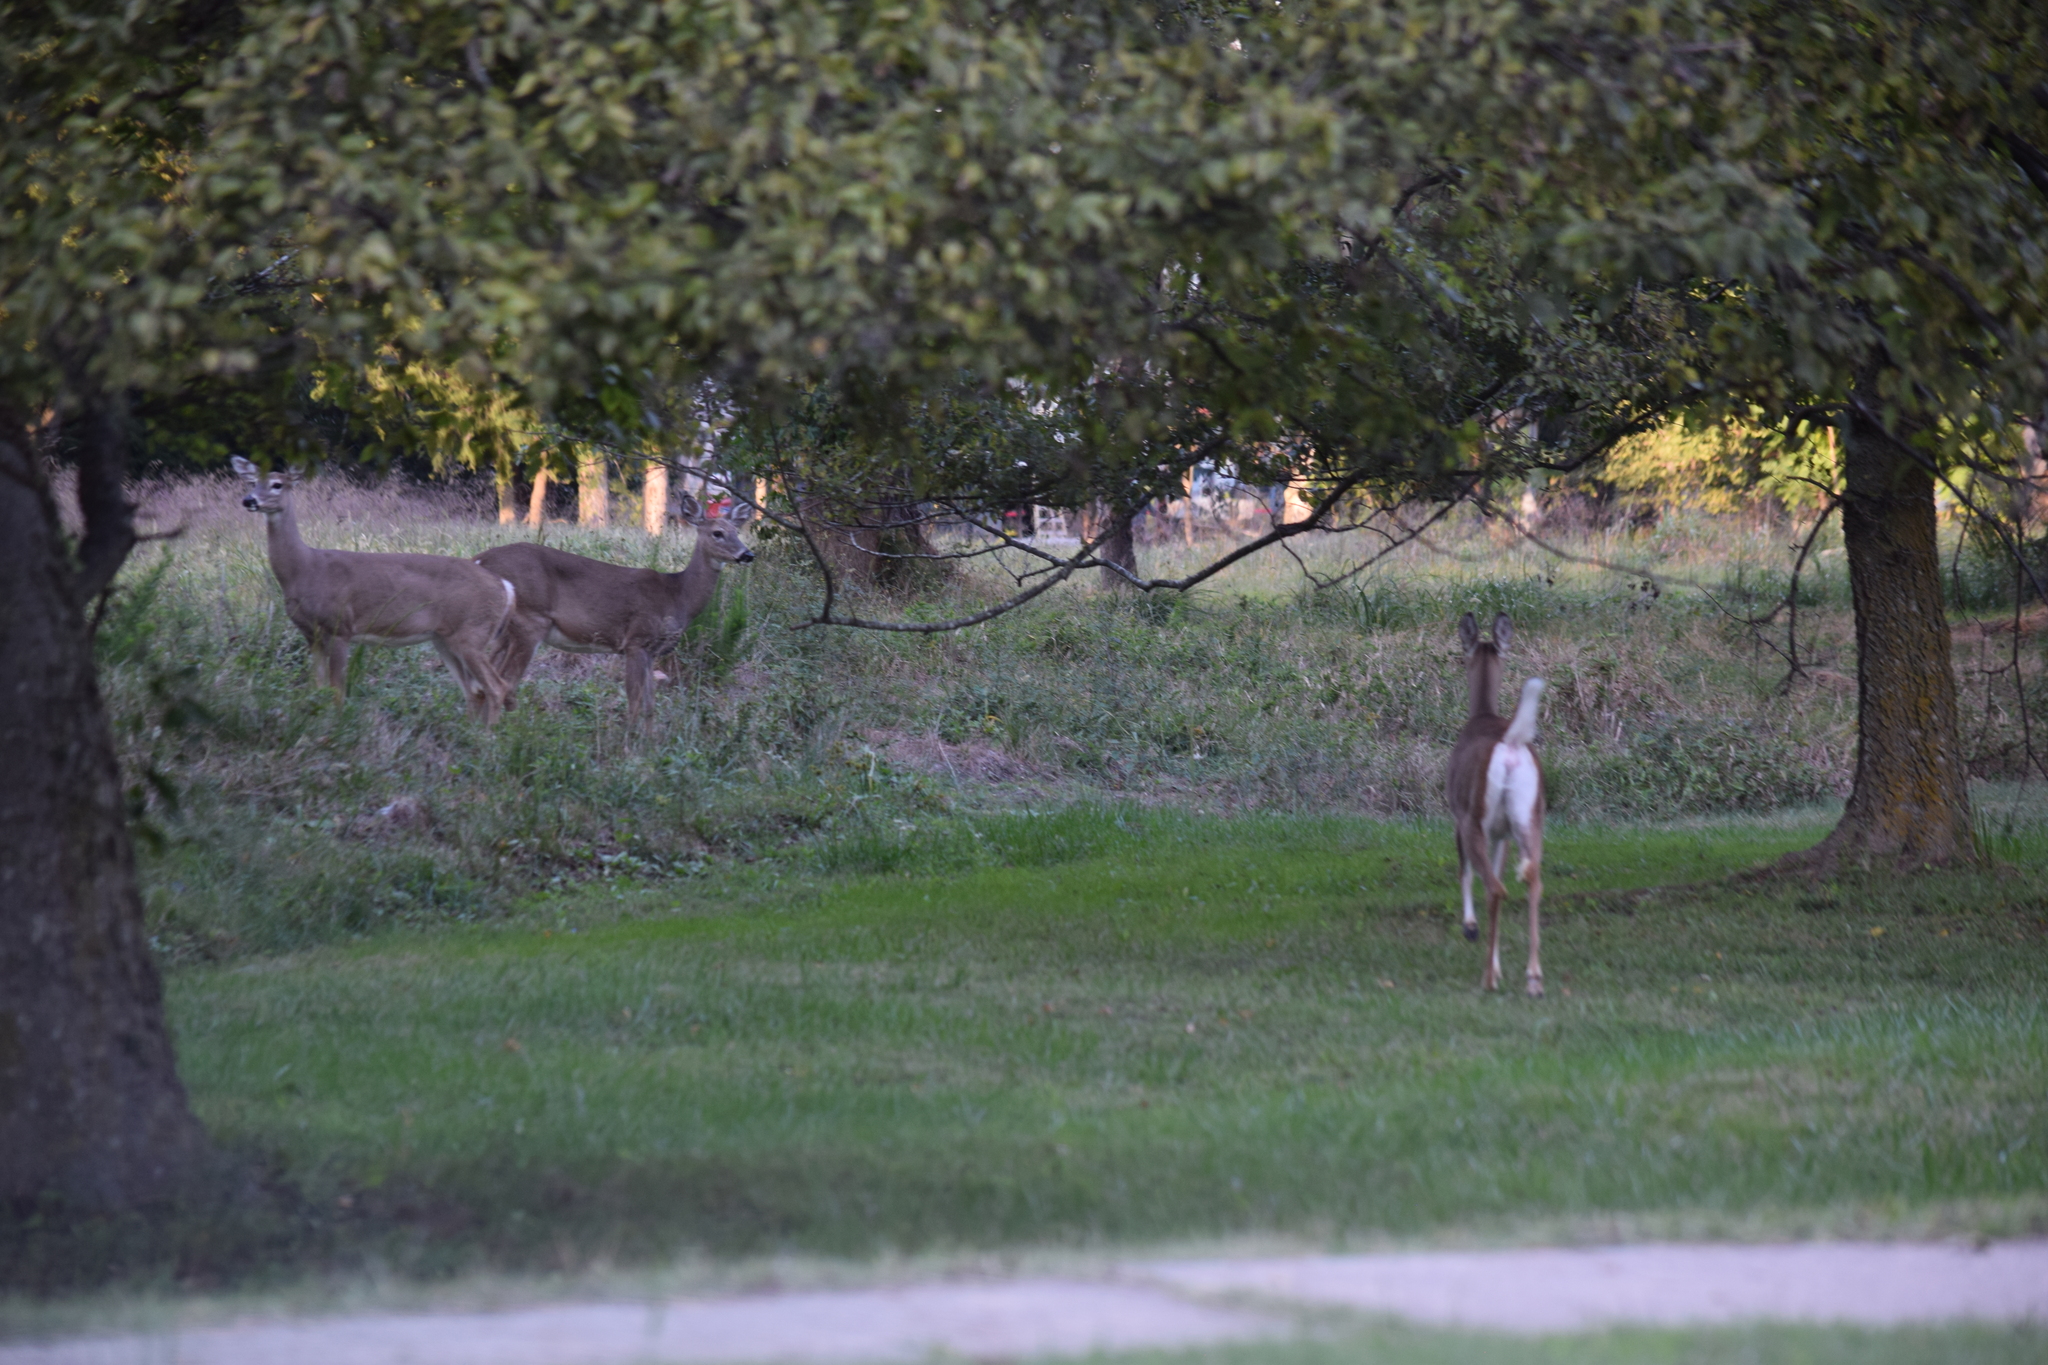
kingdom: Animalia
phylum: Chordata
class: Mammalia
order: Artiodactyla
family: Cervidae
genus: Odocoileus
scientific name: Odocoileus virginianus
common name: White-tailed deer
